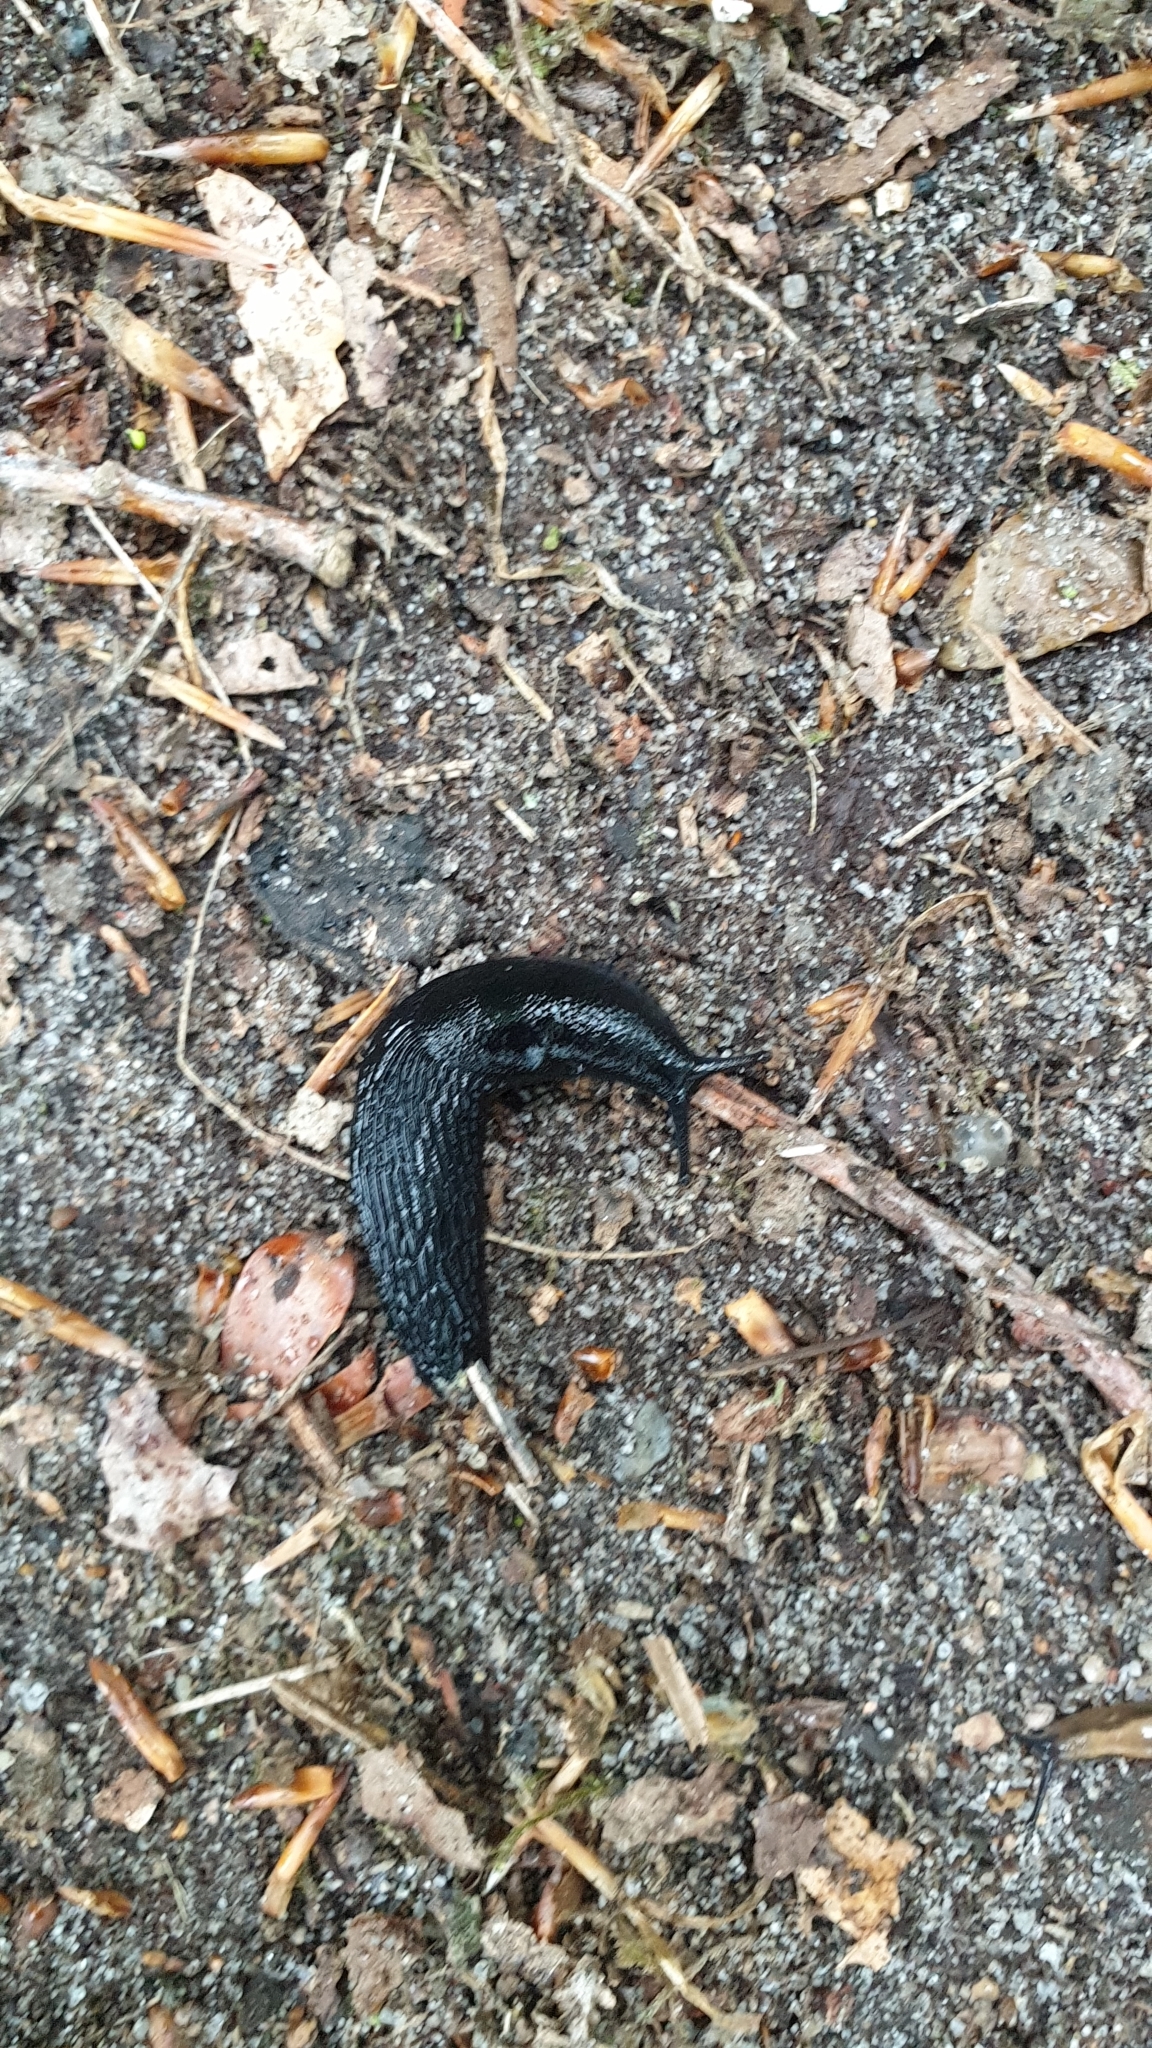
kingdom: Animalia
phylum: Mollusca
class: Gastropoda
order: Stylommatophora
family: Arionidae
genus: Arion
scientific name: Arion ater
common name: Black arion
